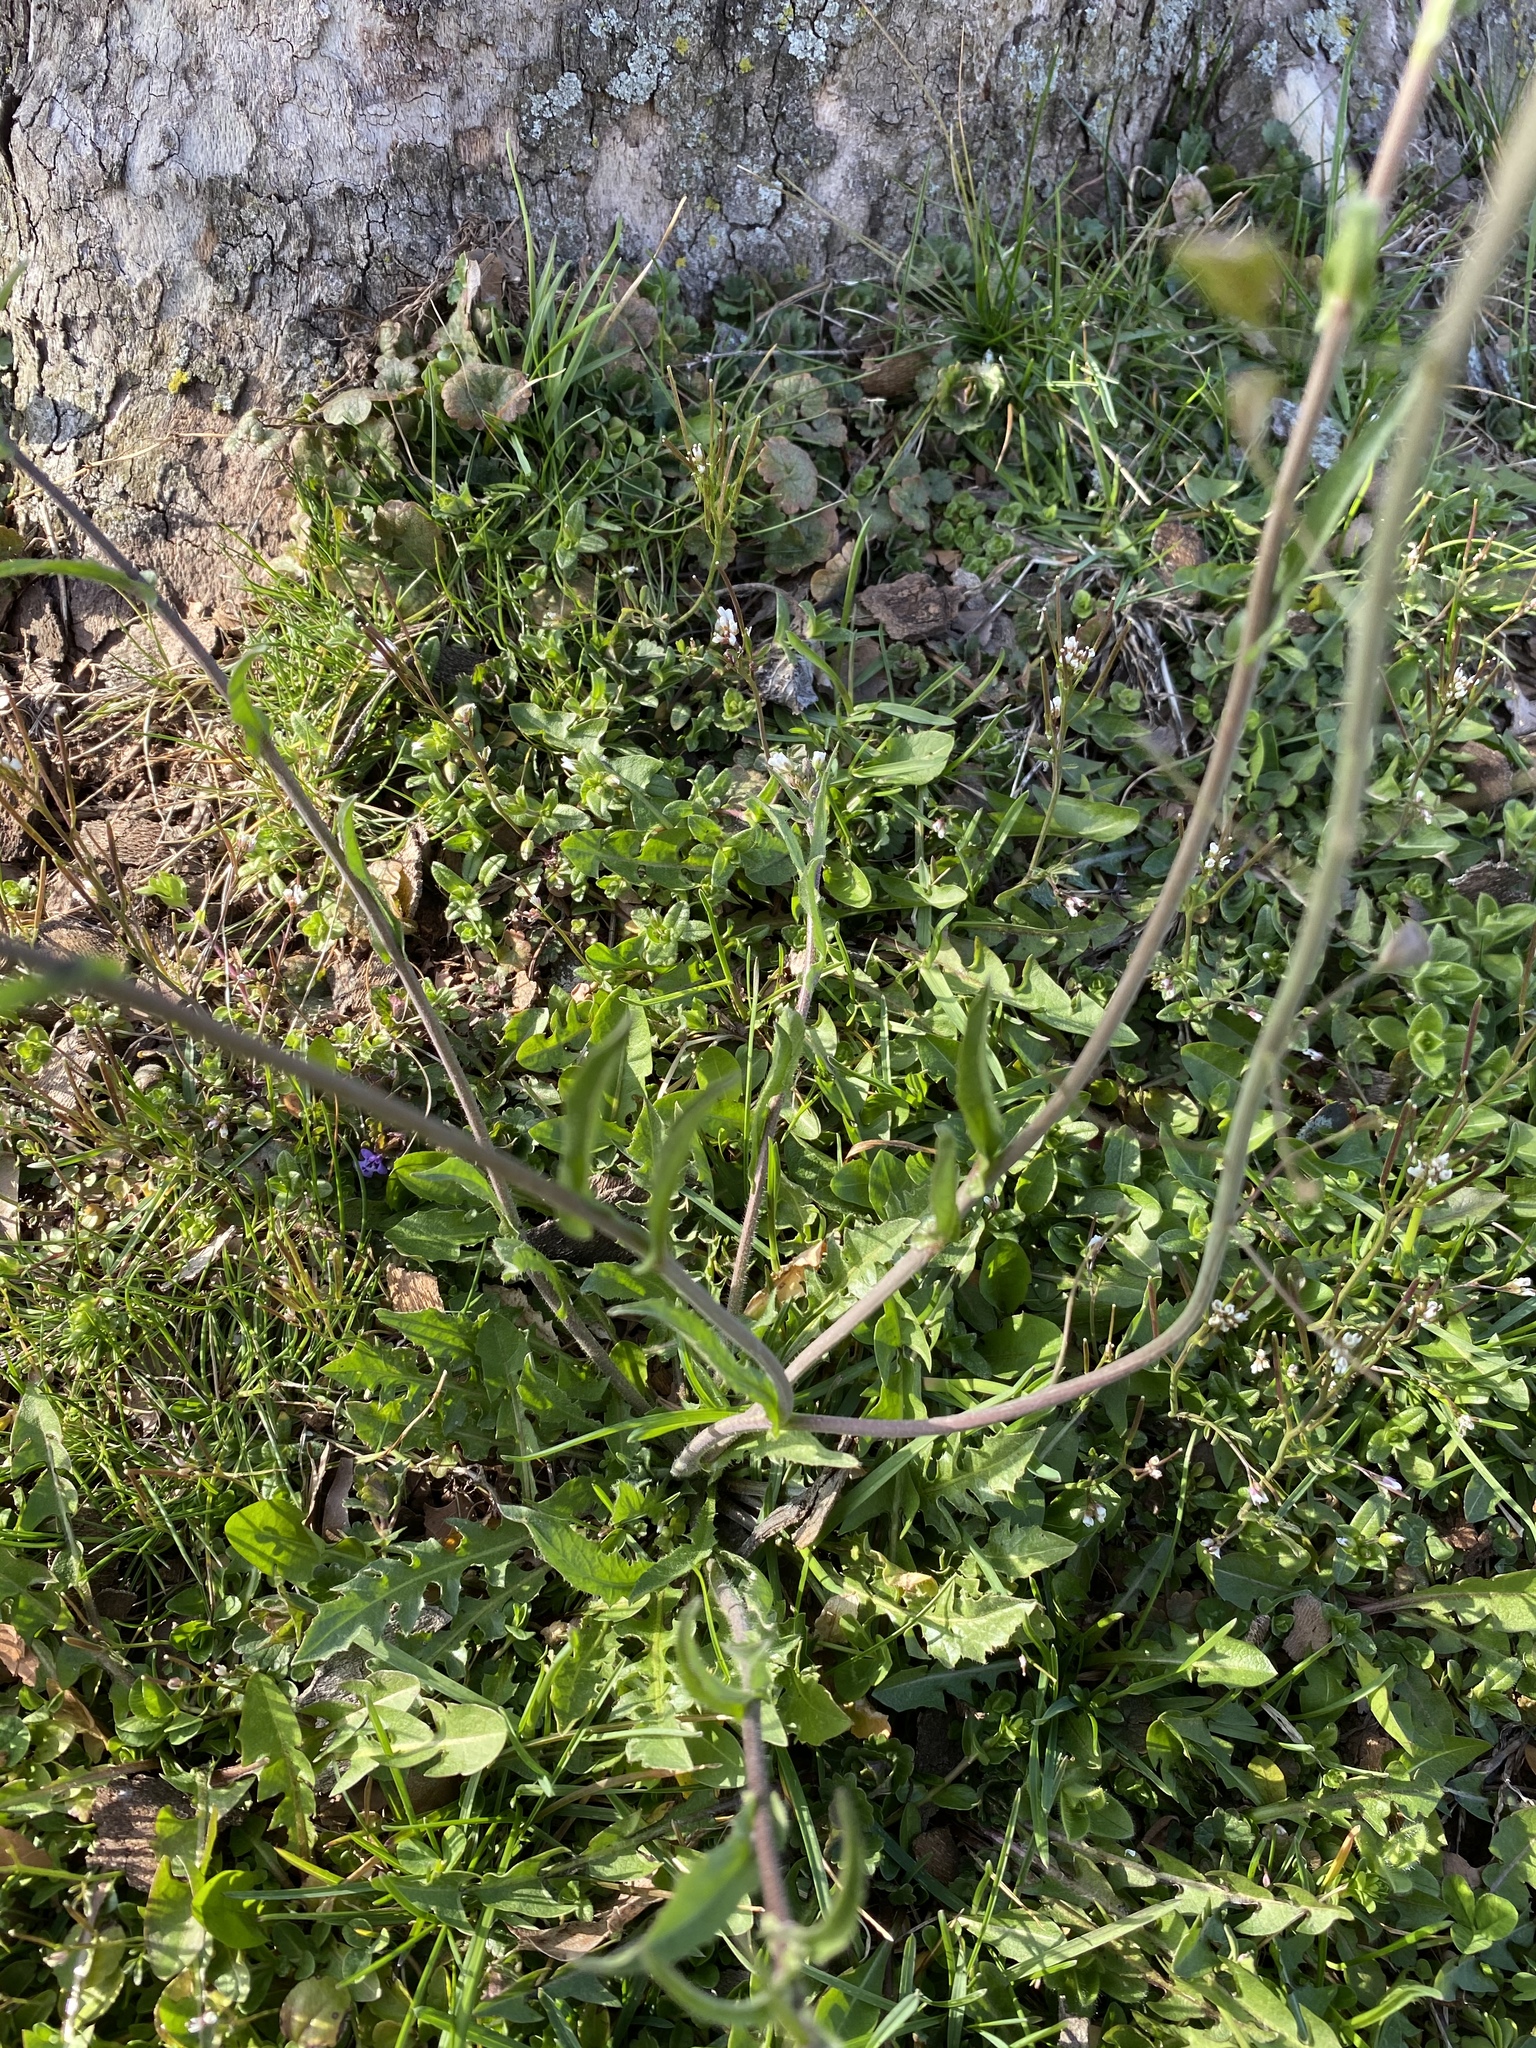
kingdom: Plantae
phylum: Tracheophyta
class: Magnoliopsida
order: Brassicales
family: Brassicaceae
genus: Capsella
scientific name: Capsella bursa-pastoris
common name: Shepherd's purse
